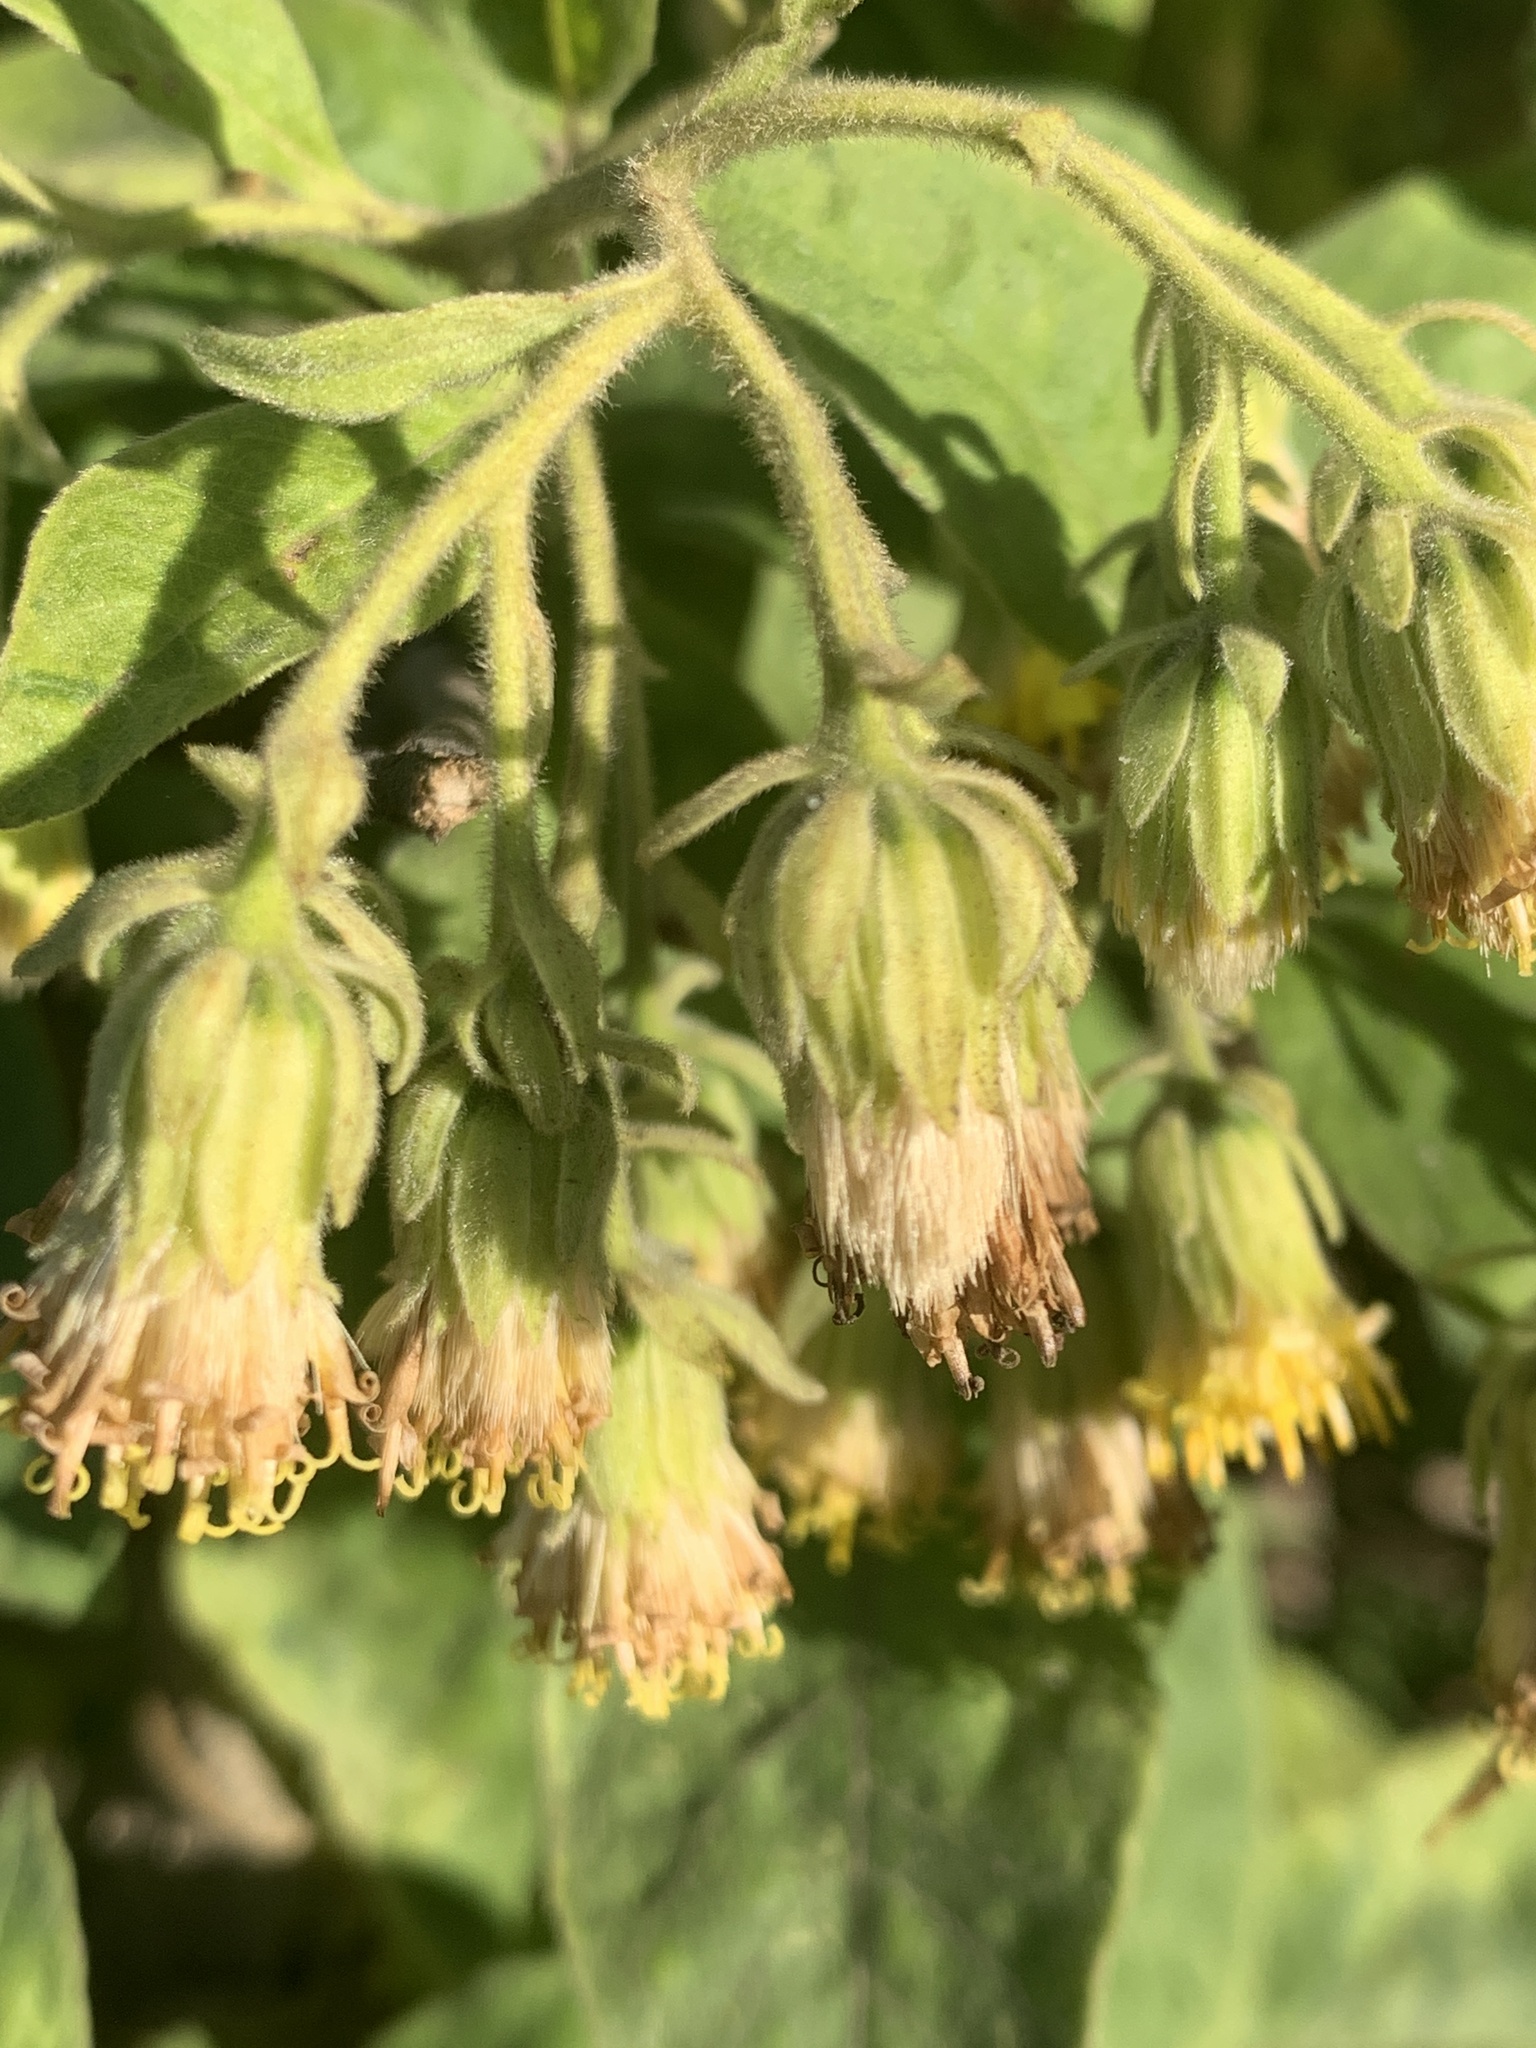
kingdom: Plantae
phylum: Tracheophyta
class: Magnoliopsida
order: Asterales
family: Asteraceae
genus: Trixis
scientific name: Trixis praestans
